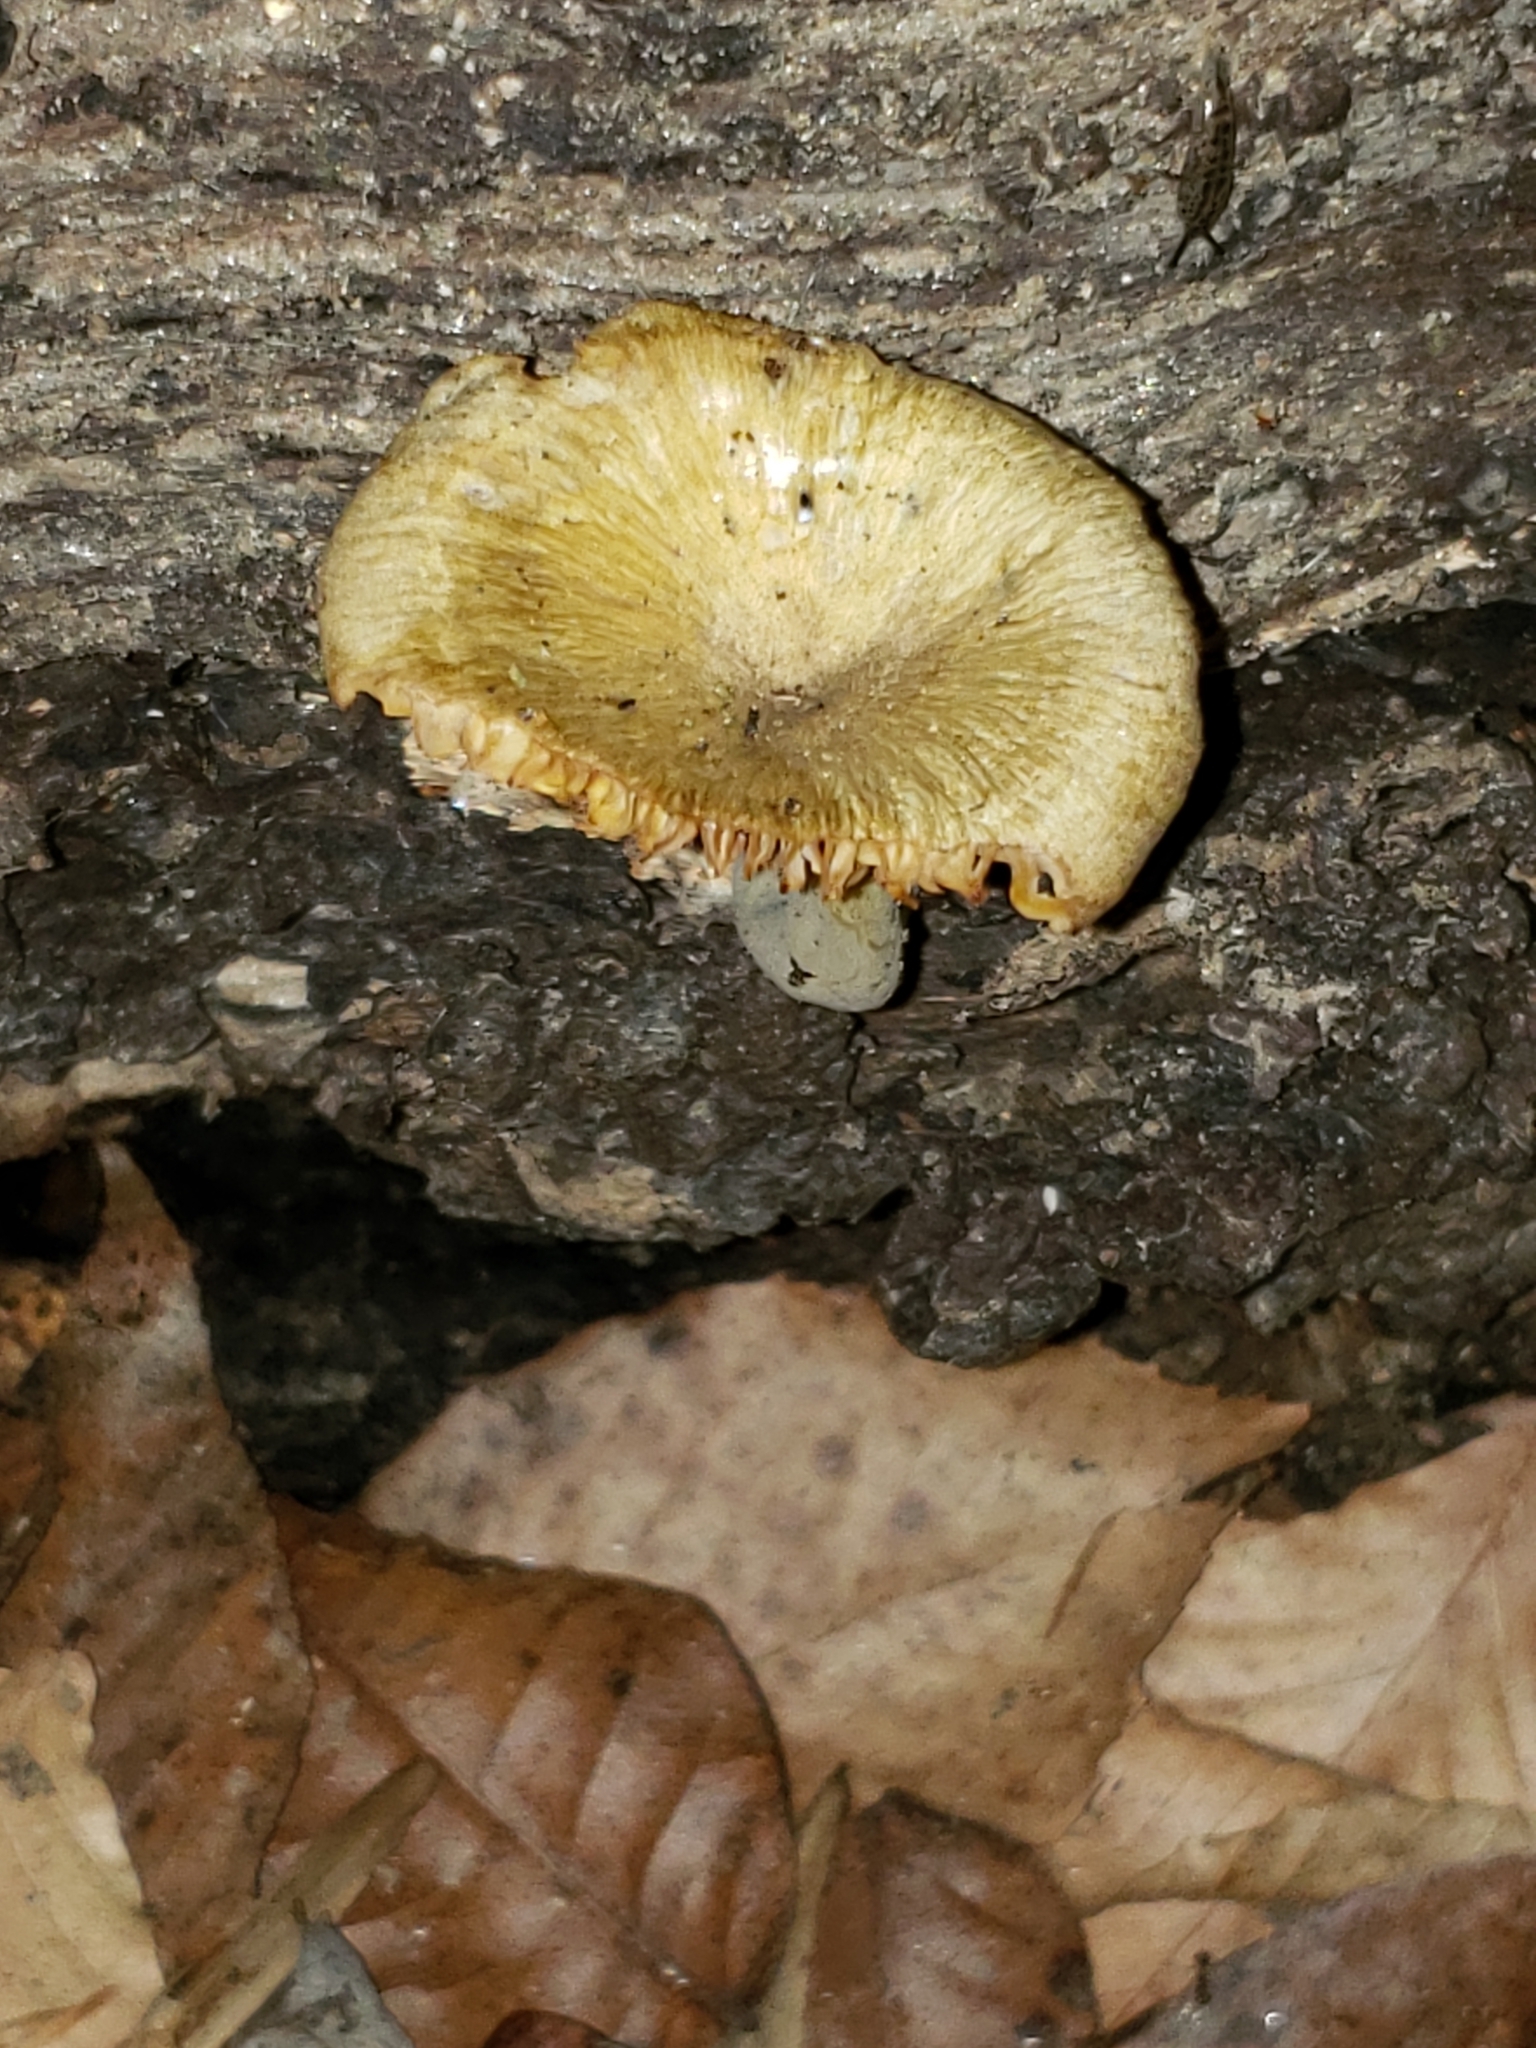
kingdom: Fungi
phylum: Basidiomycota
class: Agaricomycetes
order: Agaricales
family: Marasmiaceae
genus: Gerronema
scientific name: Gerronema strombodes
